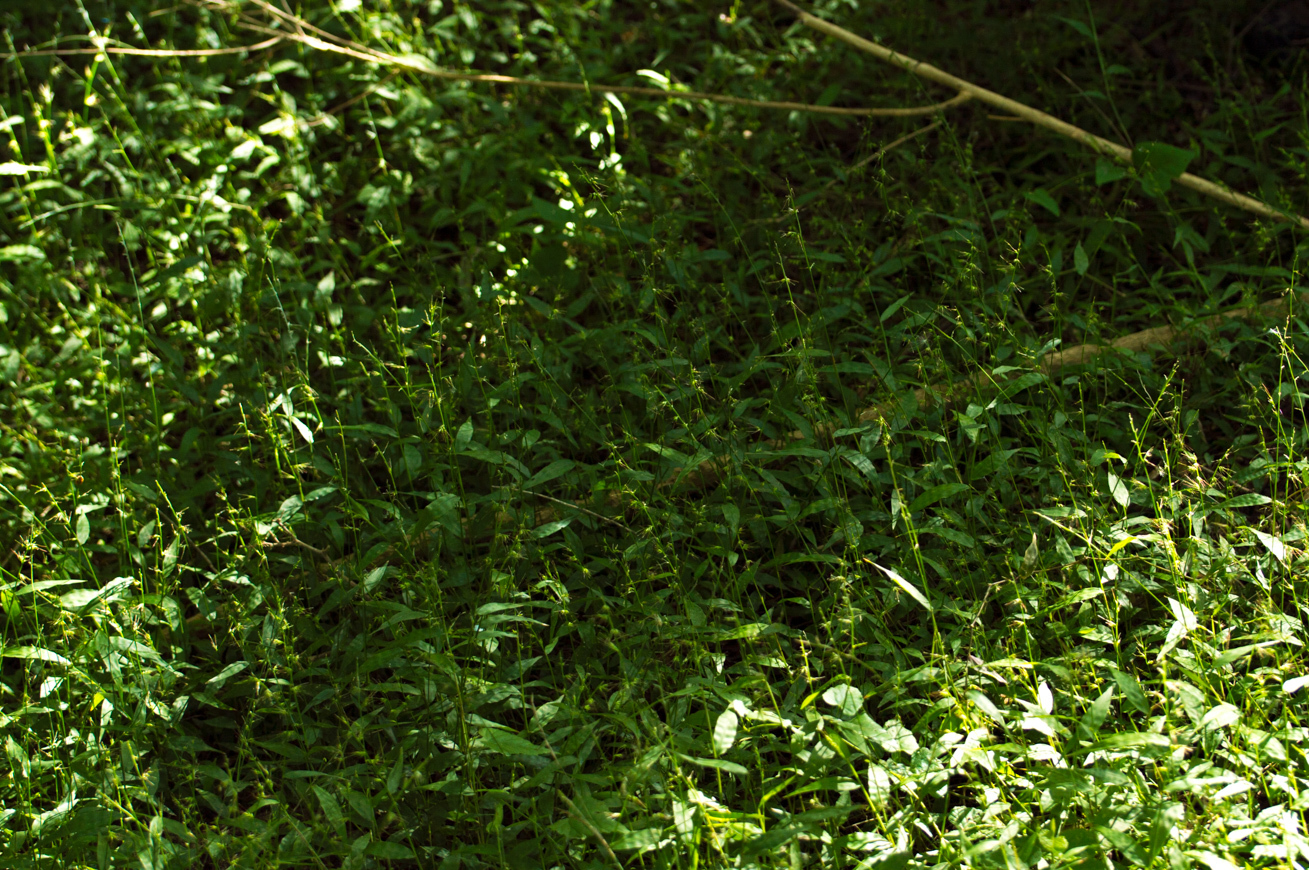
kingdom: Plantae
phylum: Tracheophyta
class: Liliopsida
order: Poales
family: Poaceae
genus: Oplismenus
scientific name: Oplismenus hirtellus
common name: Basketgrass
